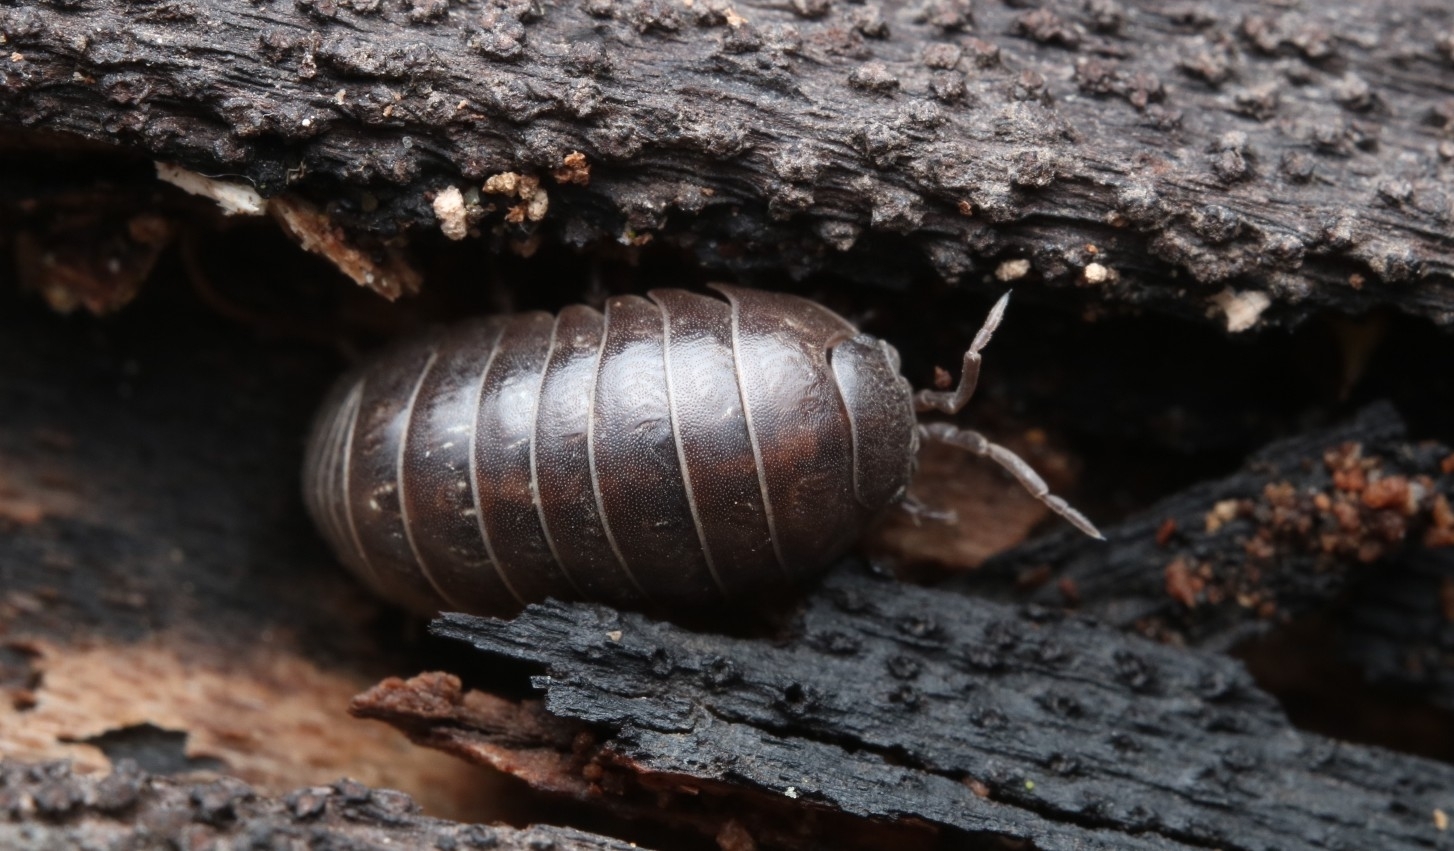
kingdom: Animalia
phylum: Arthropoda
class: Malacostraca
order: Isopoda
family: Armadillidiidae
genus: Armadillidium
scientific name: Armadillidium vulgare
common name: Common pill woodlouse
